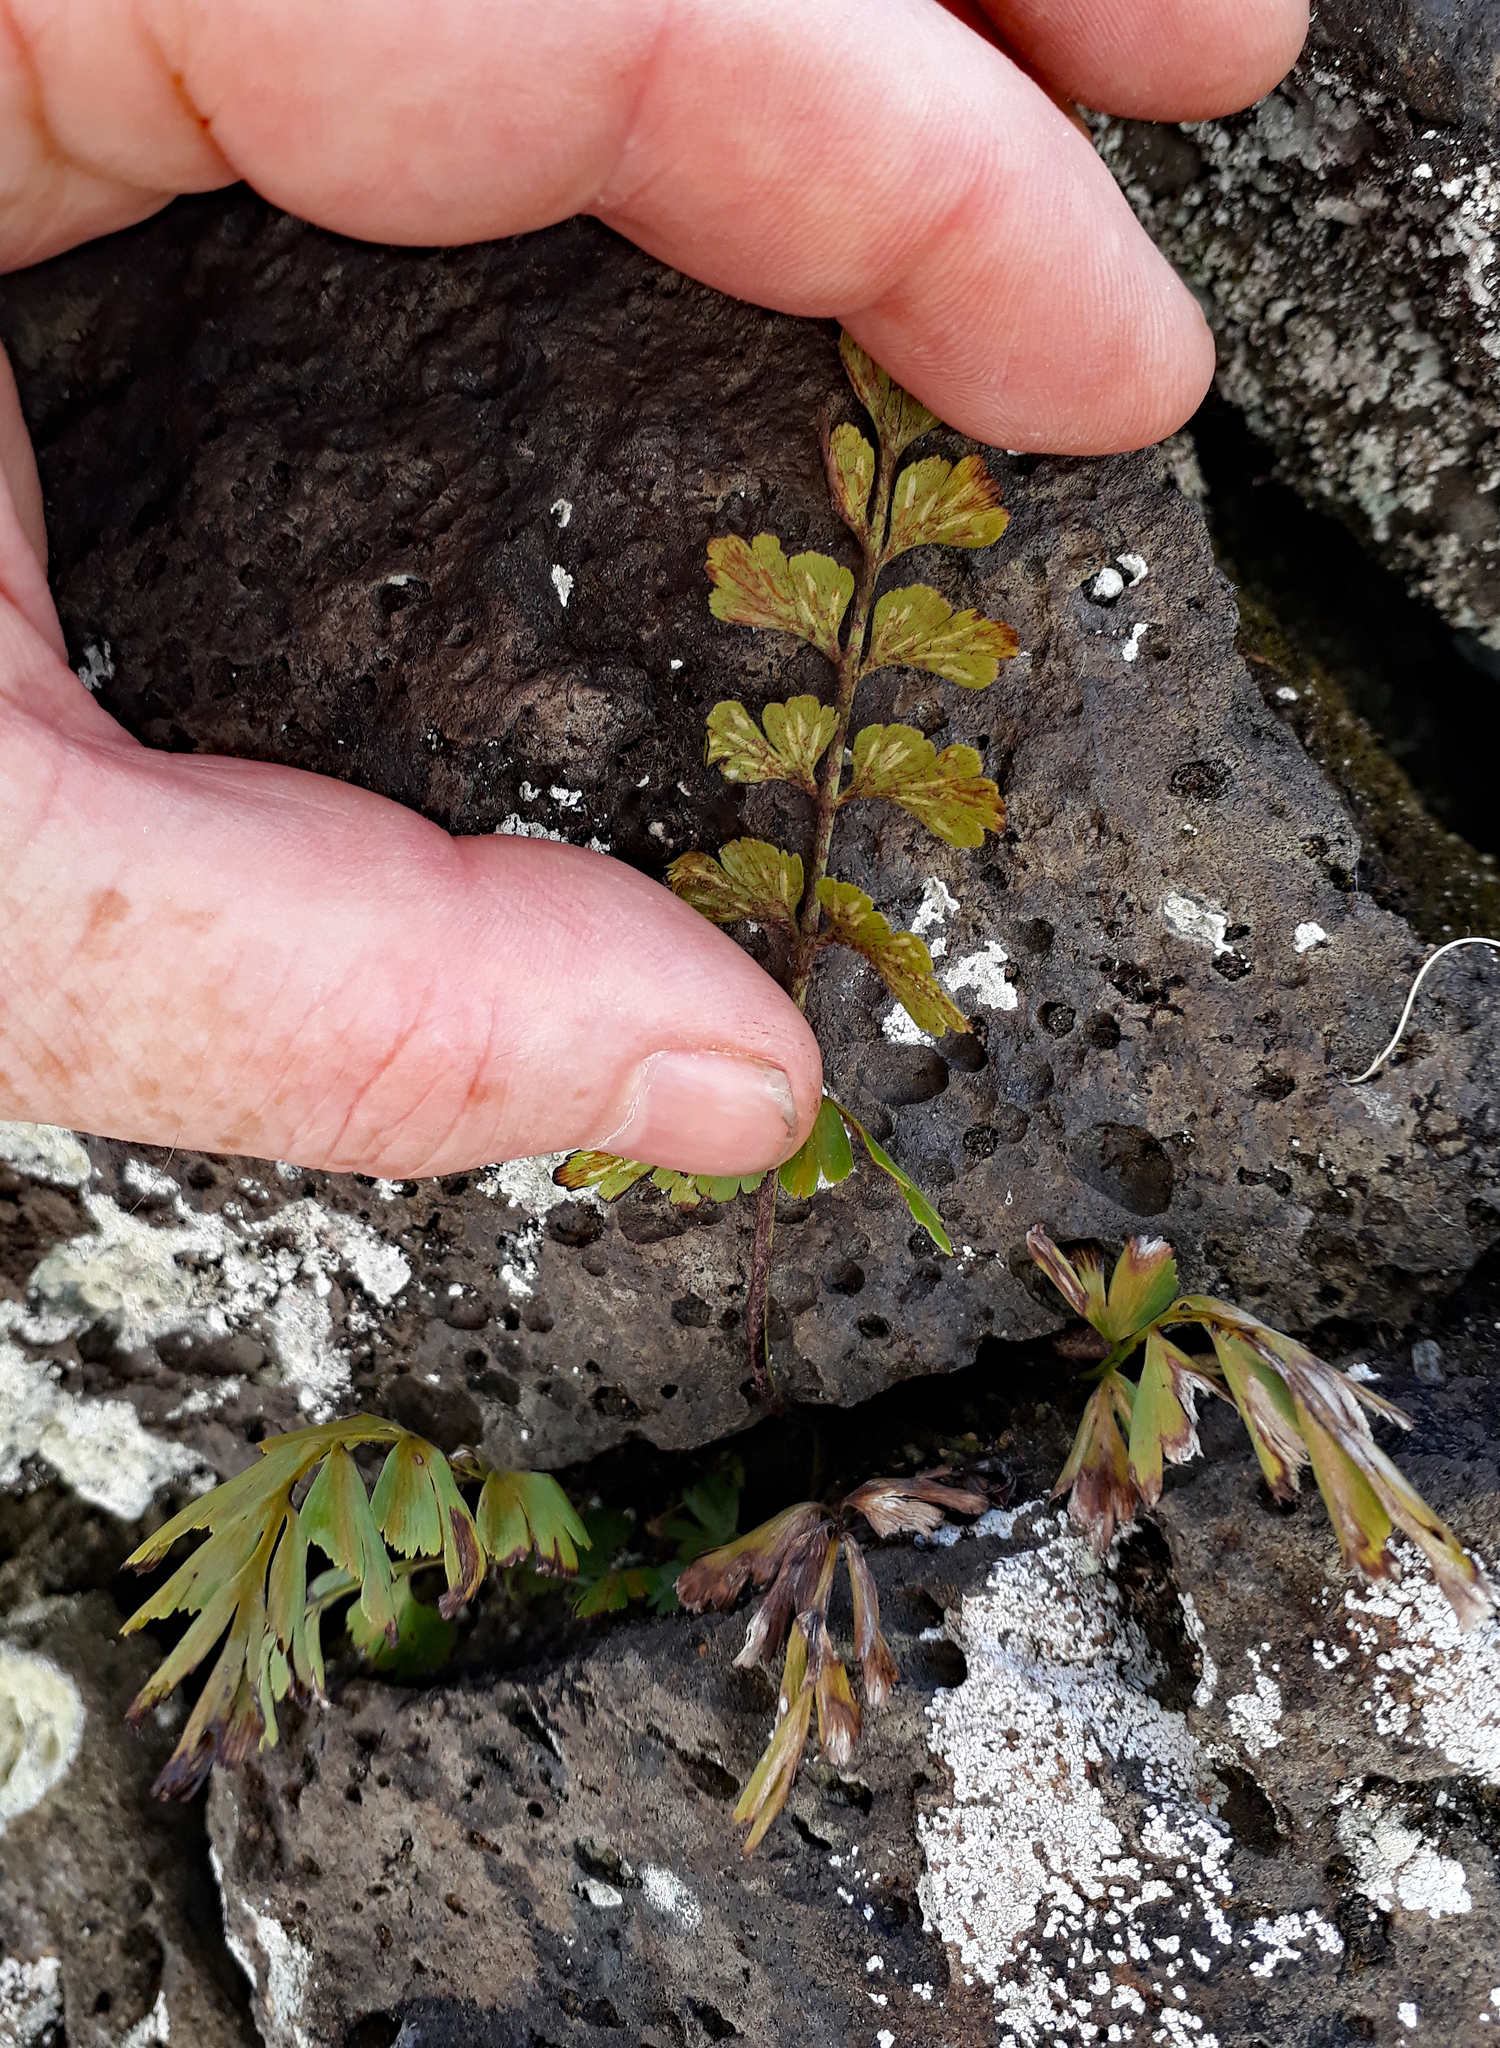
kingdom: Plantae
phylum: Tracheophyta
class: Polypodiopsida
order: Polypodiales
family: Aspleniaceae
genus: Asplenium
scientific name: Asplenium aethiopicum
